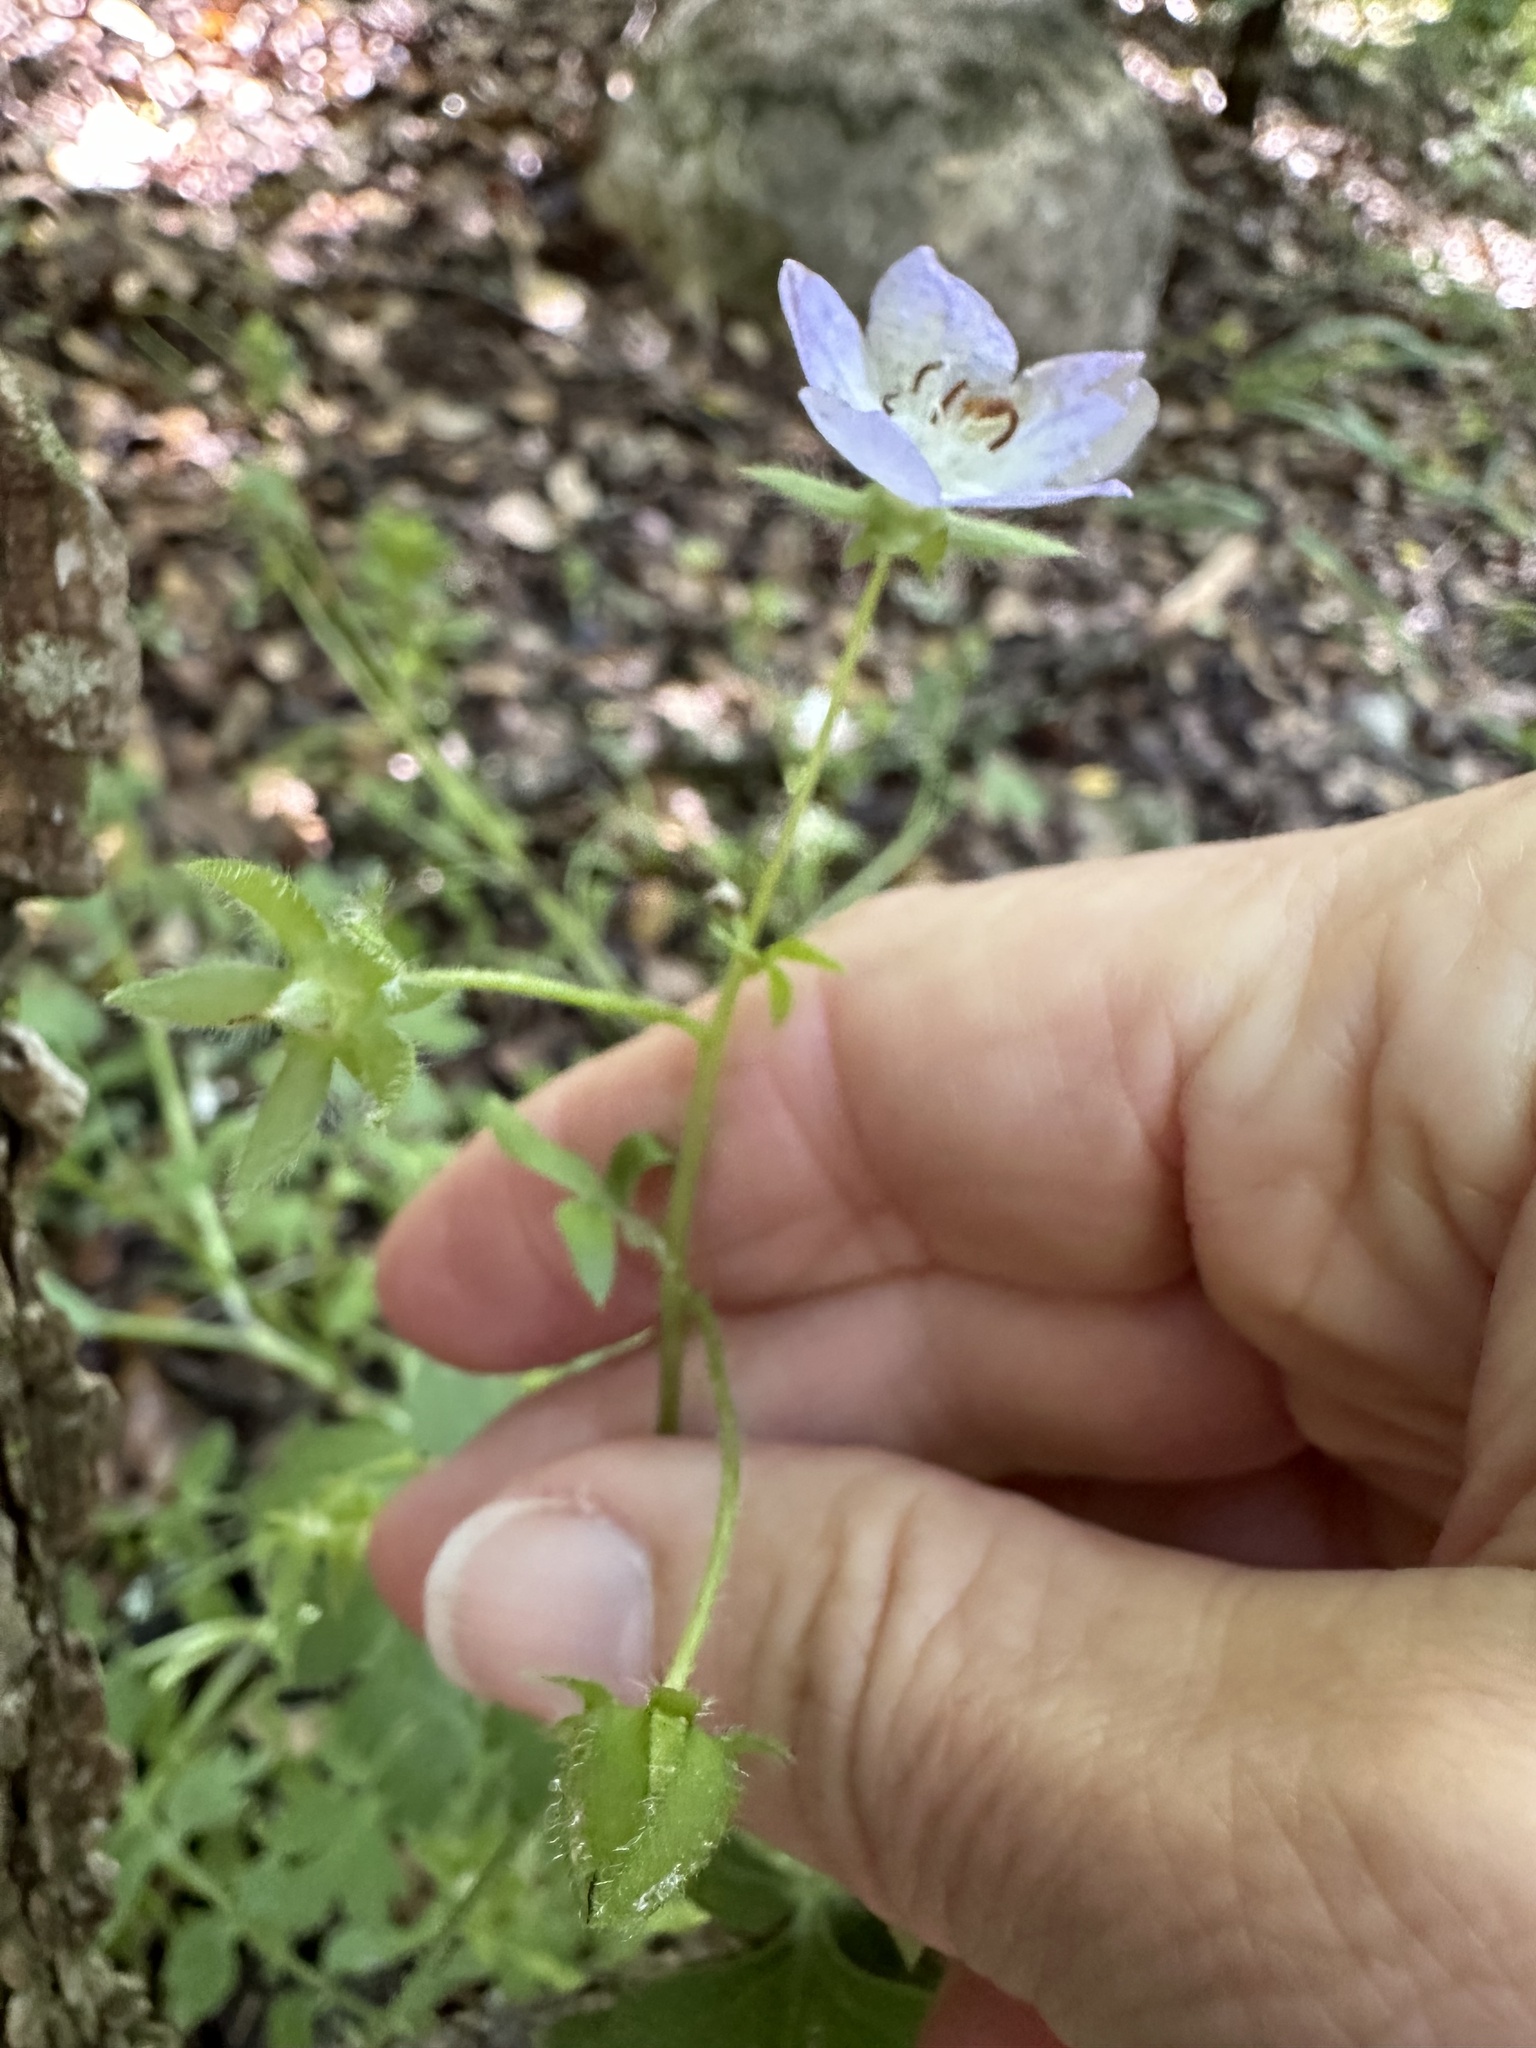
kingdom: Plantae
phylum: Tracheophyta
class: Magnoliopsida
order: Boraginales
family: Hydrophyllaceae
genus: Nemophila
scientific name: Nemophila phacelioides
